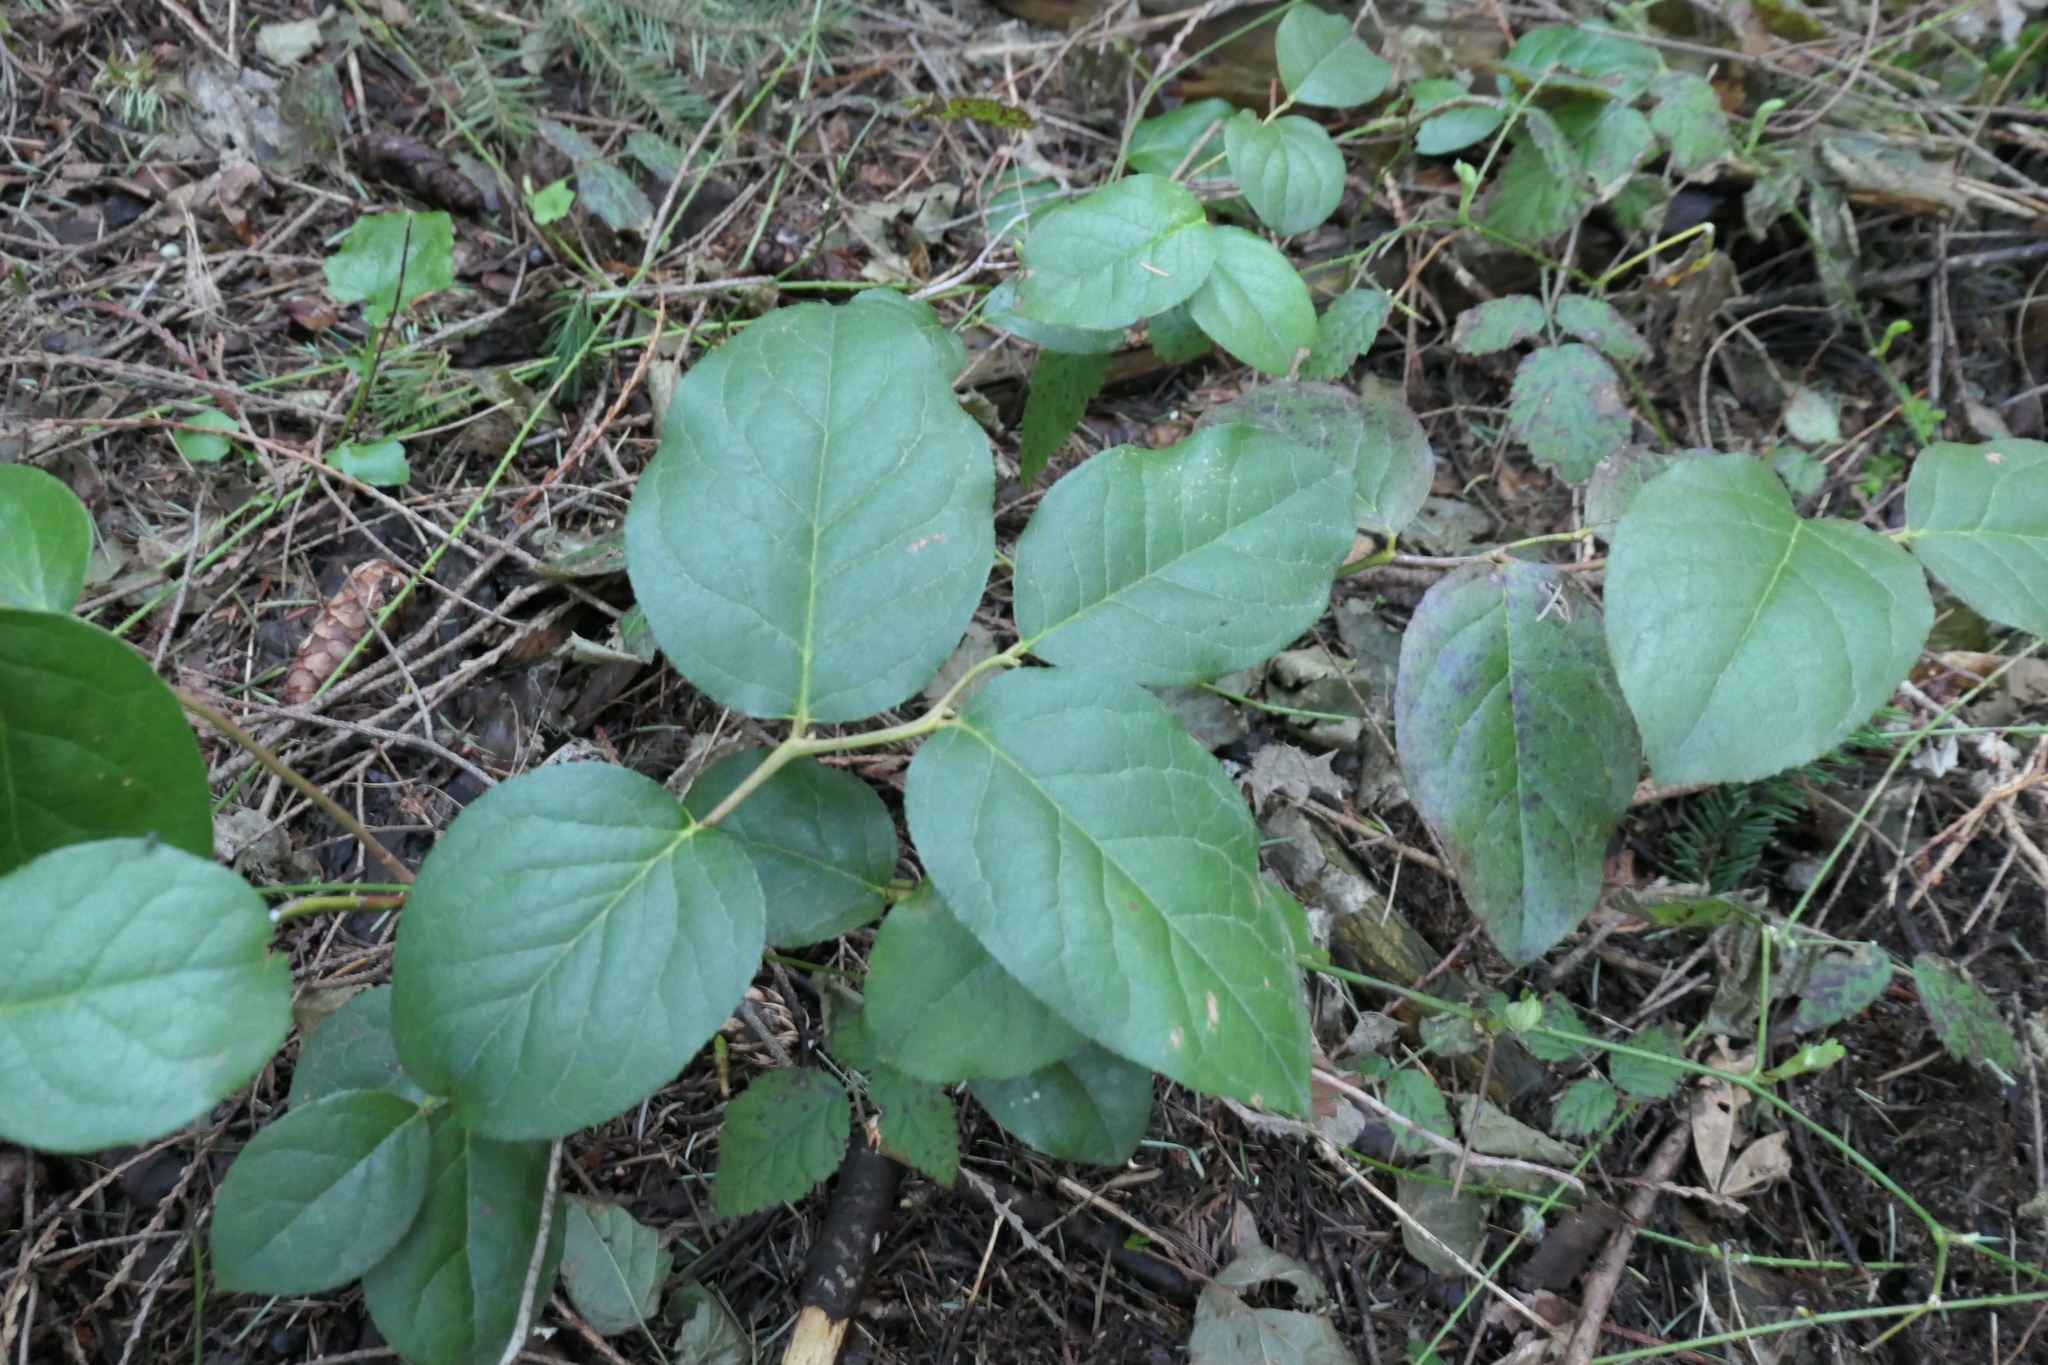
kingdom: Plantae
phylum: Tracheophyta
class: Magnoliopsida
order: Ericales
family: Ericaceae
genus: Gaultheria
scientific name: Gaultheria shallon
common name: Shallon
